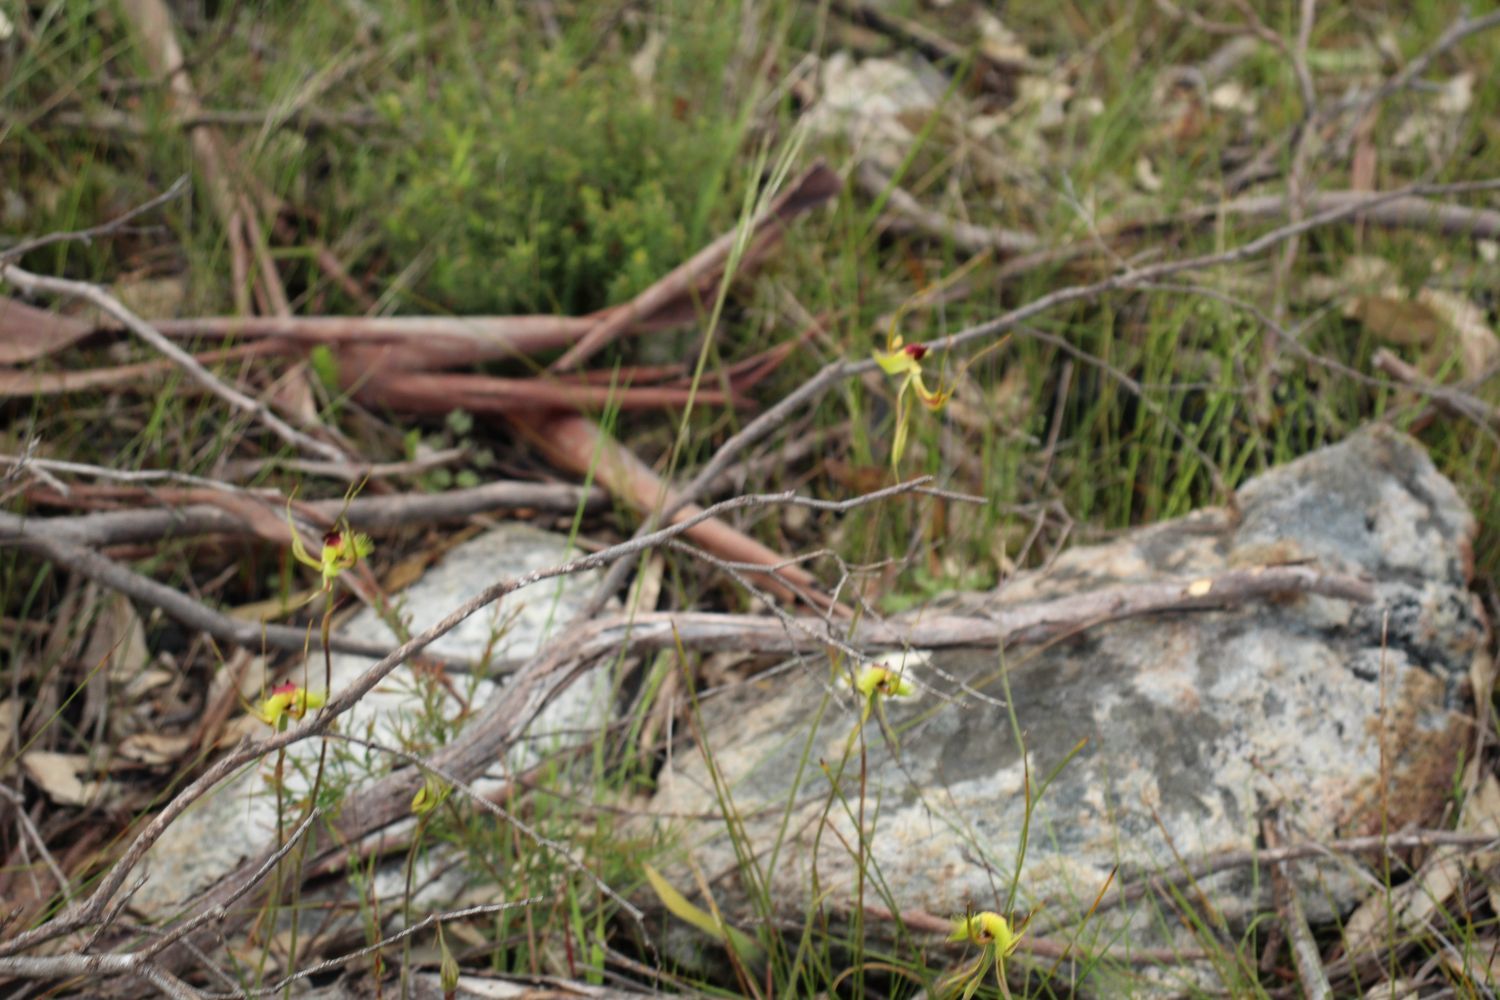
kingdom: Plantae
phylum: Tracheophyta
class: Liliopsida
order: Asparagales
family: Orchidaceae
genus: Caladenia
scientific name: Caladenia lobata
